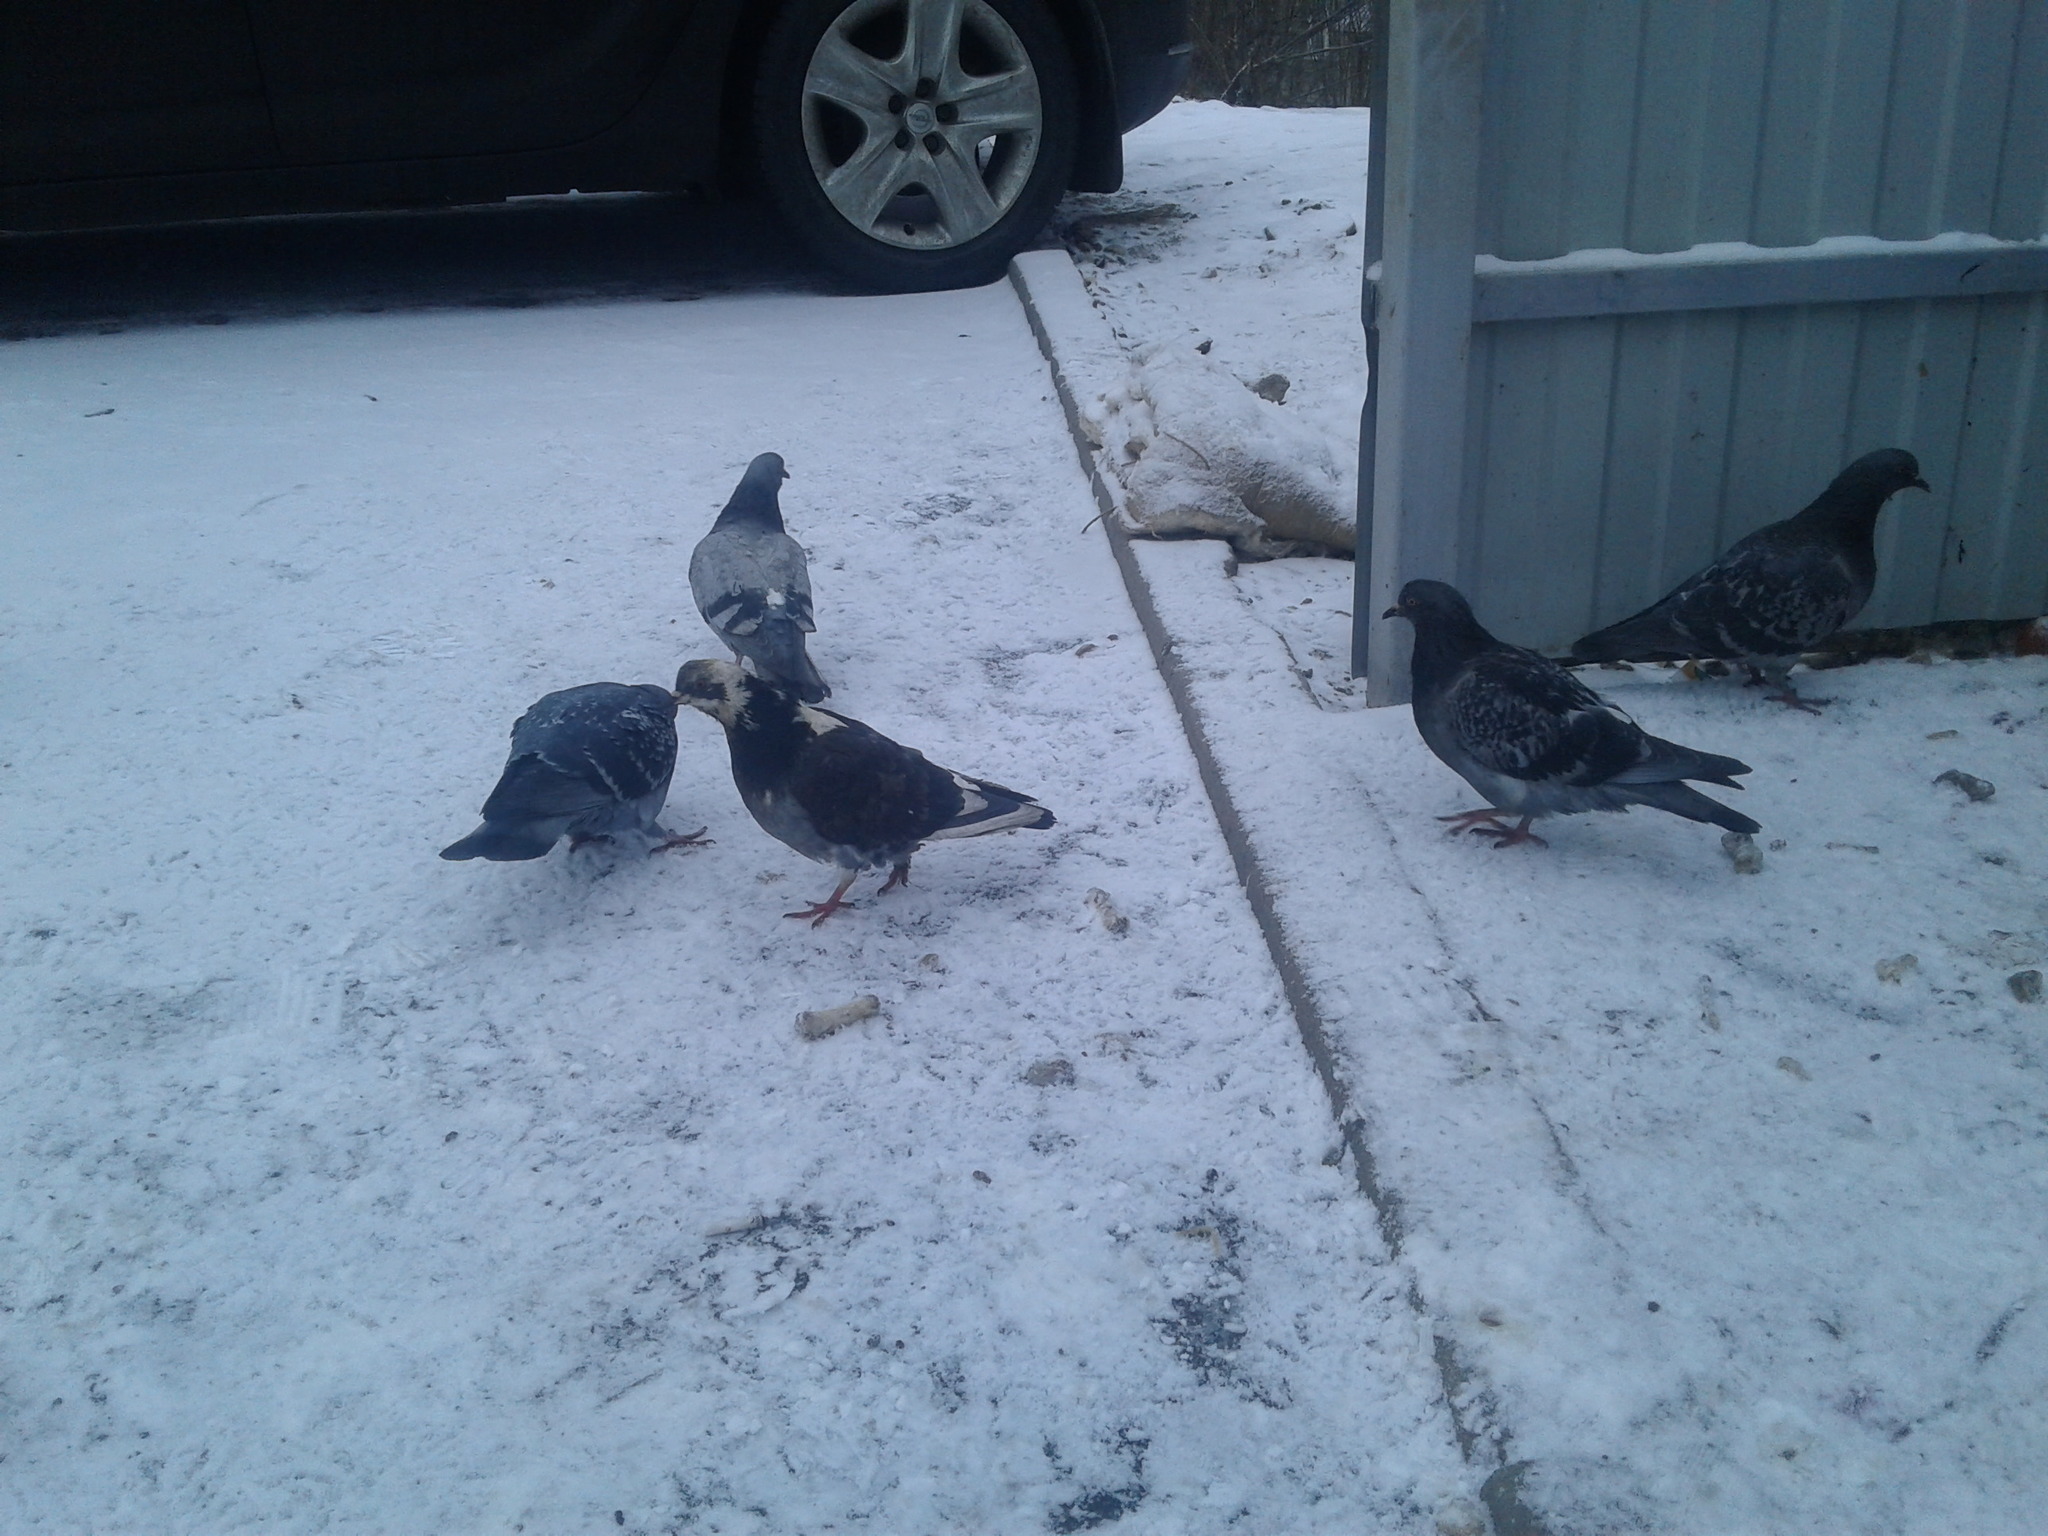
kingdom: Animalia
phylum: Chordata
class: Aves
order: Columbiformes
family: Columbidae
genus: Columba
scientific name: Columba livia
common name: Rock pigeon
